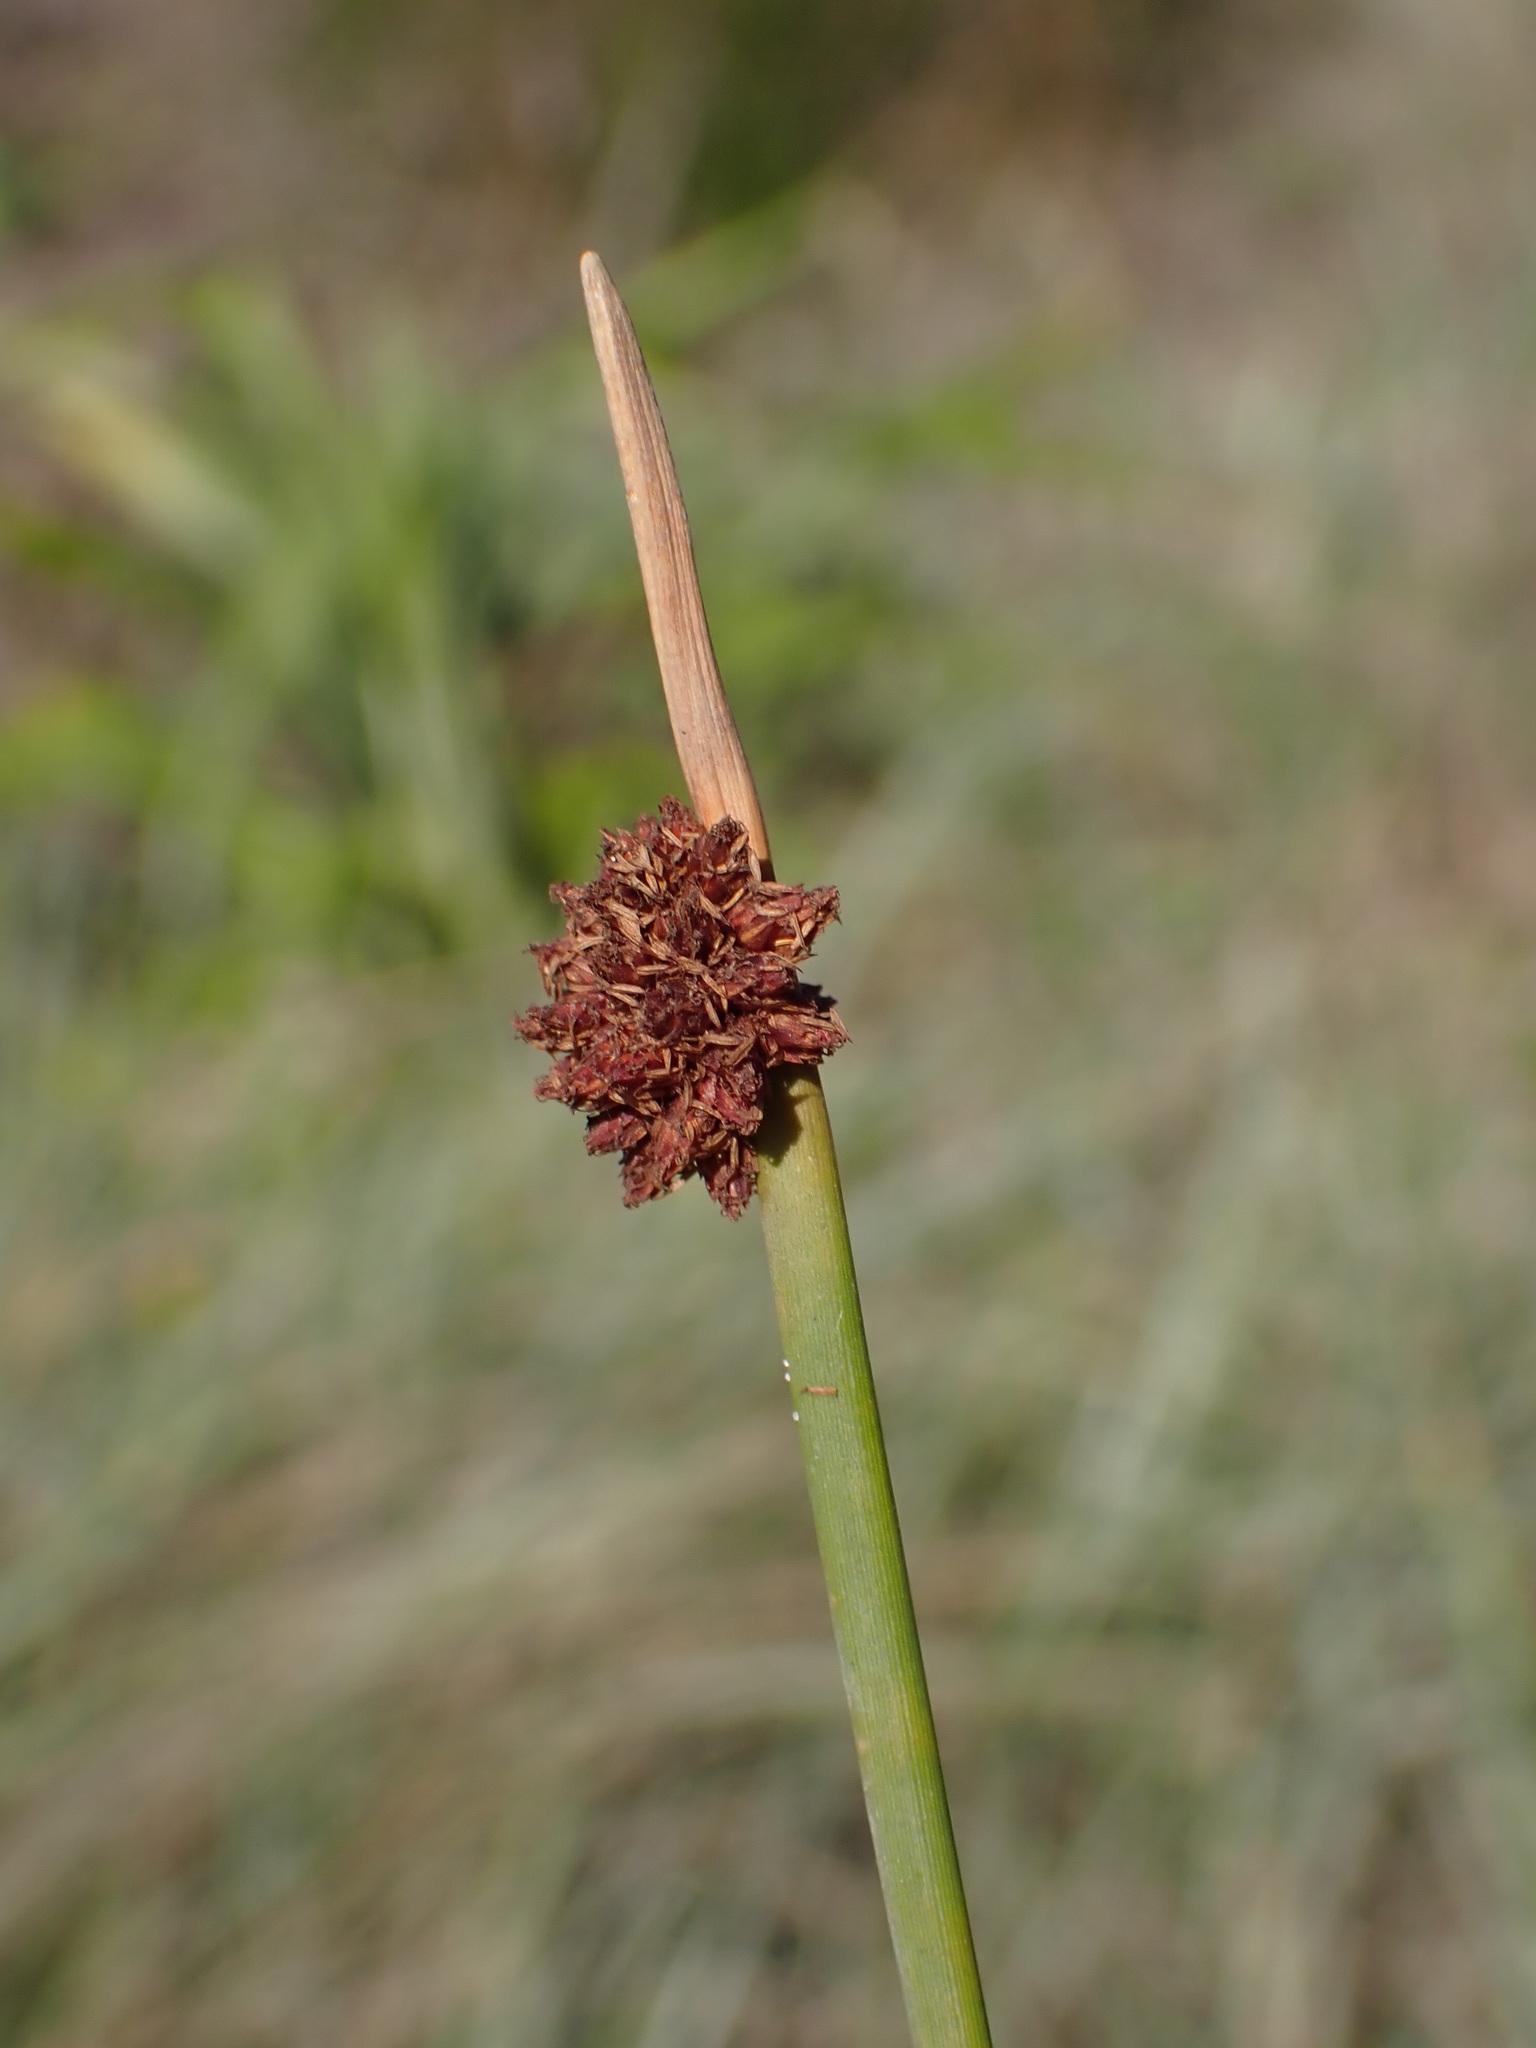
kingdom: Plantae
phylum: Tracheophyta
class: Liliopsida
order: Poales
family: Cyperaceae
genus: Ficinia
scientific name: Ficinia nodosa
